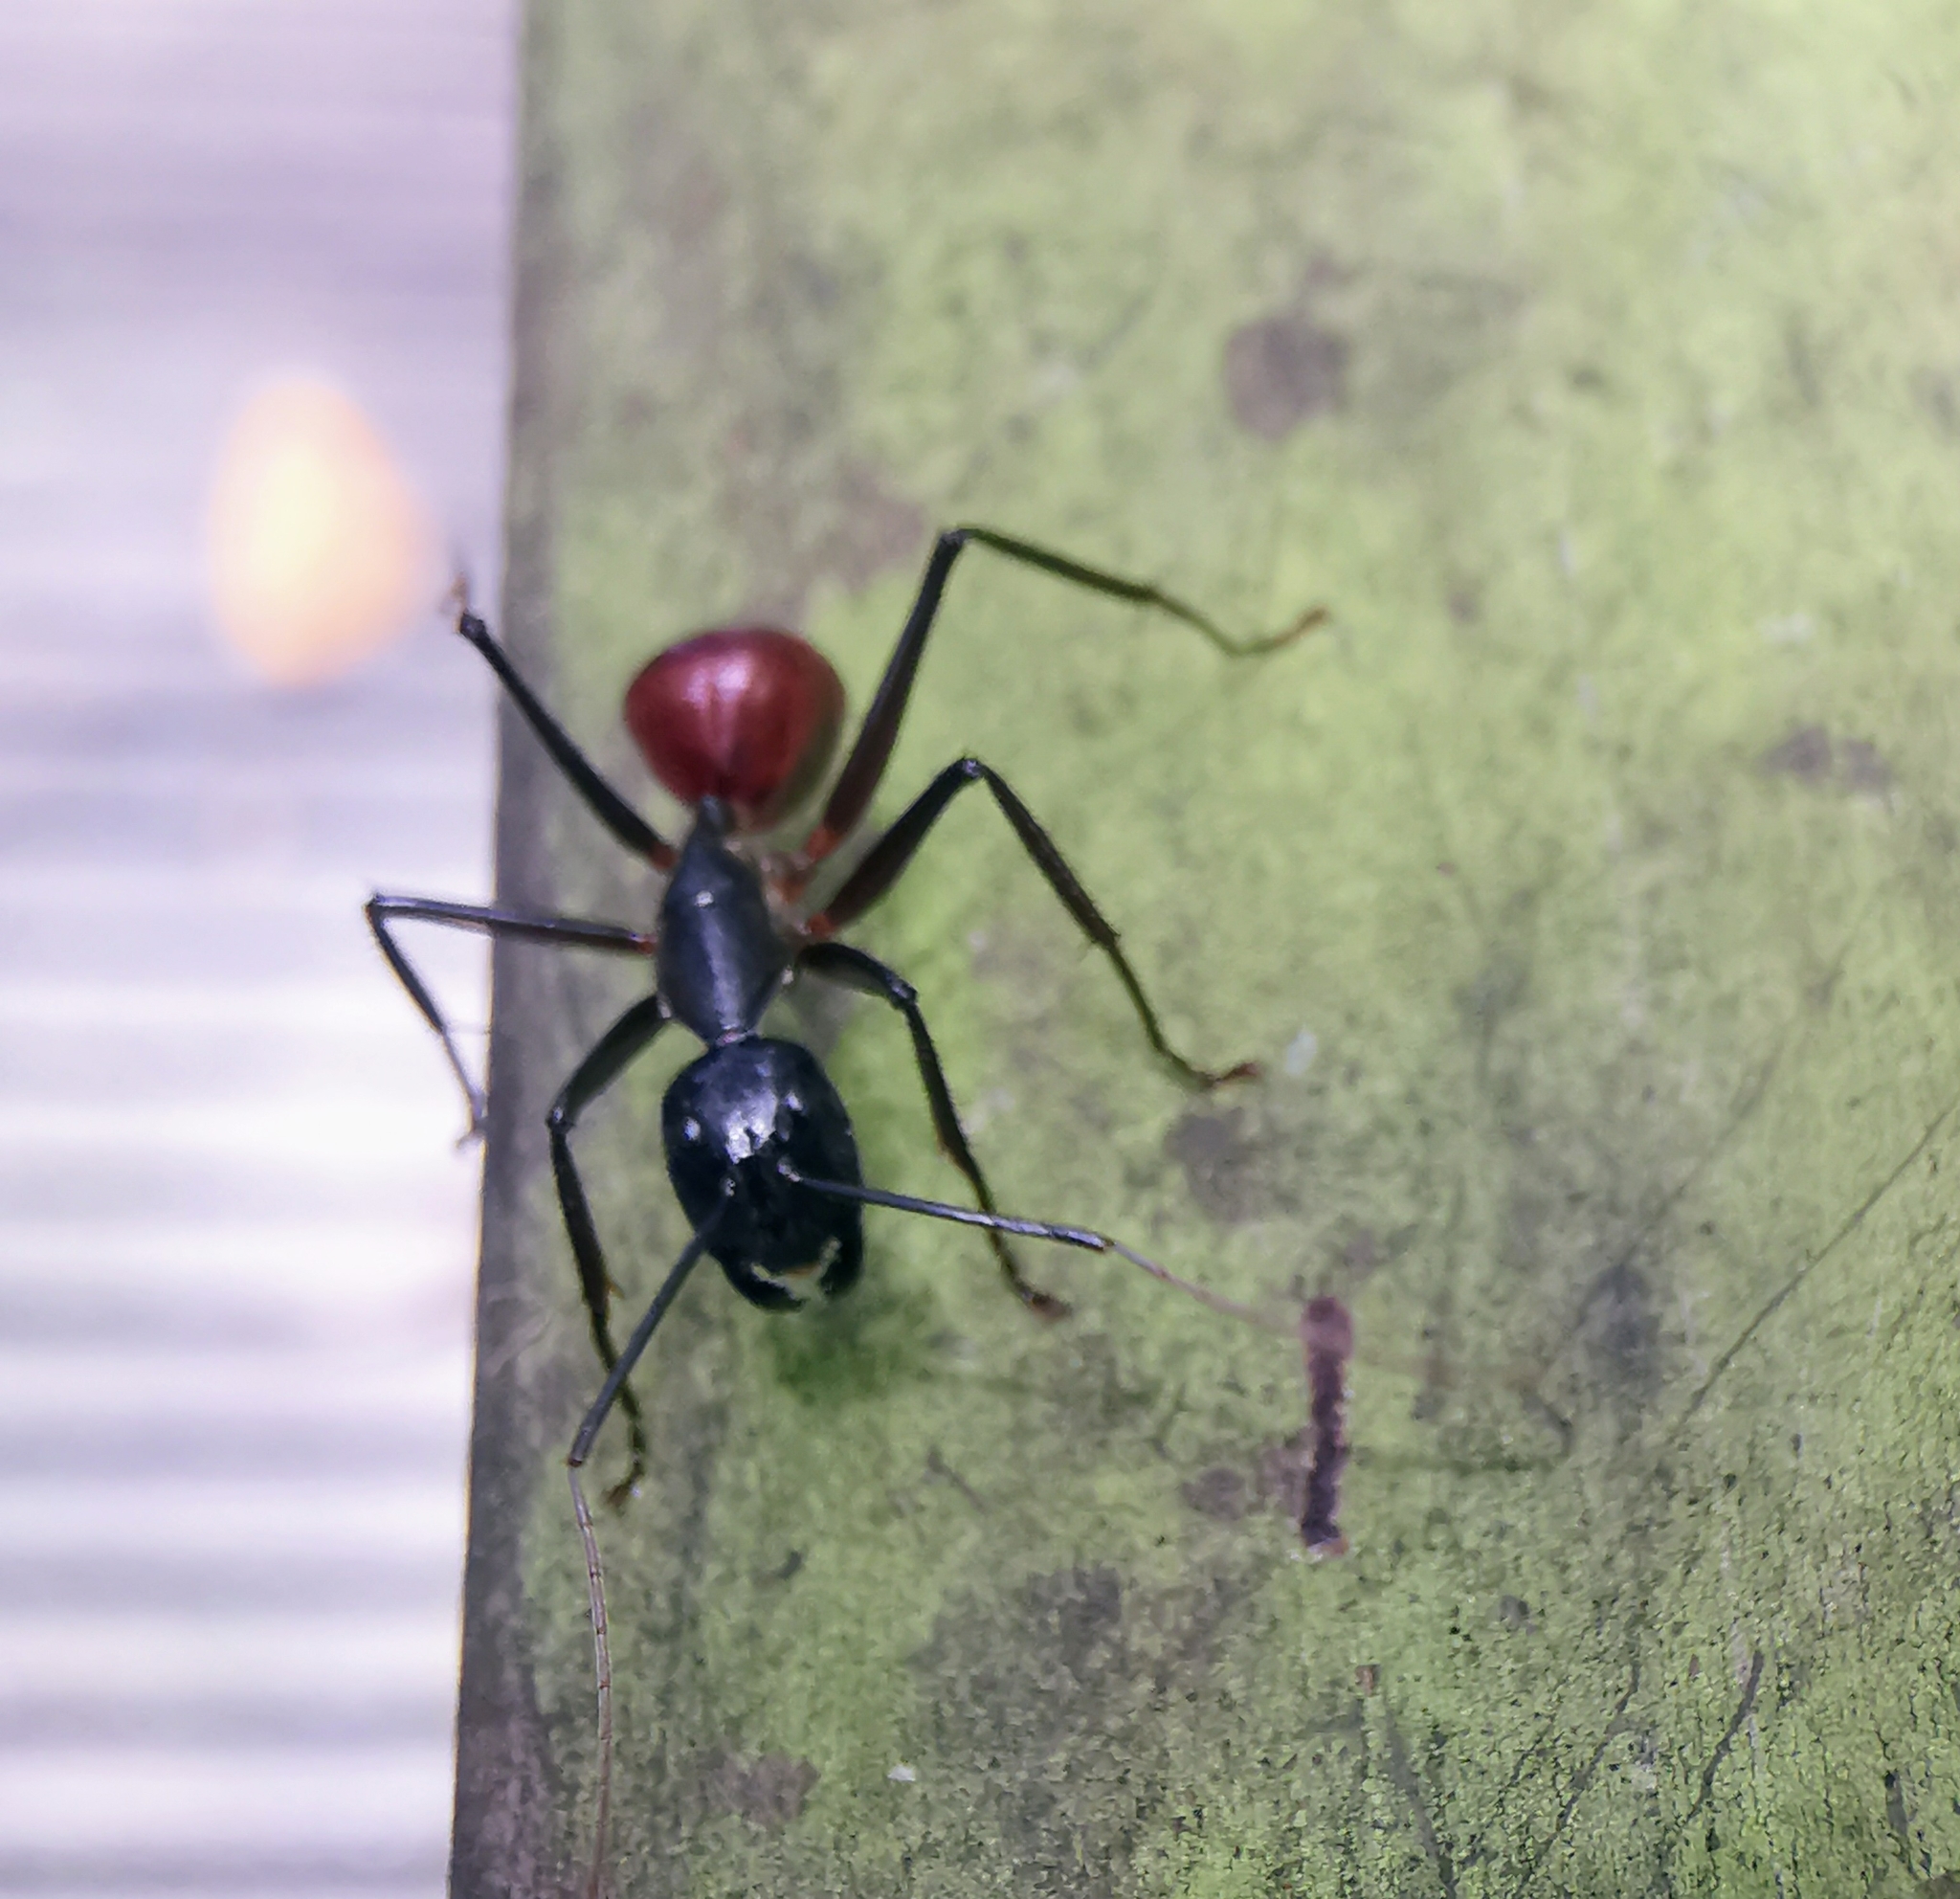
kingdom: Animalia
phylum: Arthropoda
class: Insecta
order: Hymenoptera
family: Formicidae
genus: Dinomyrmex
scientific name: Dinomyrmex
